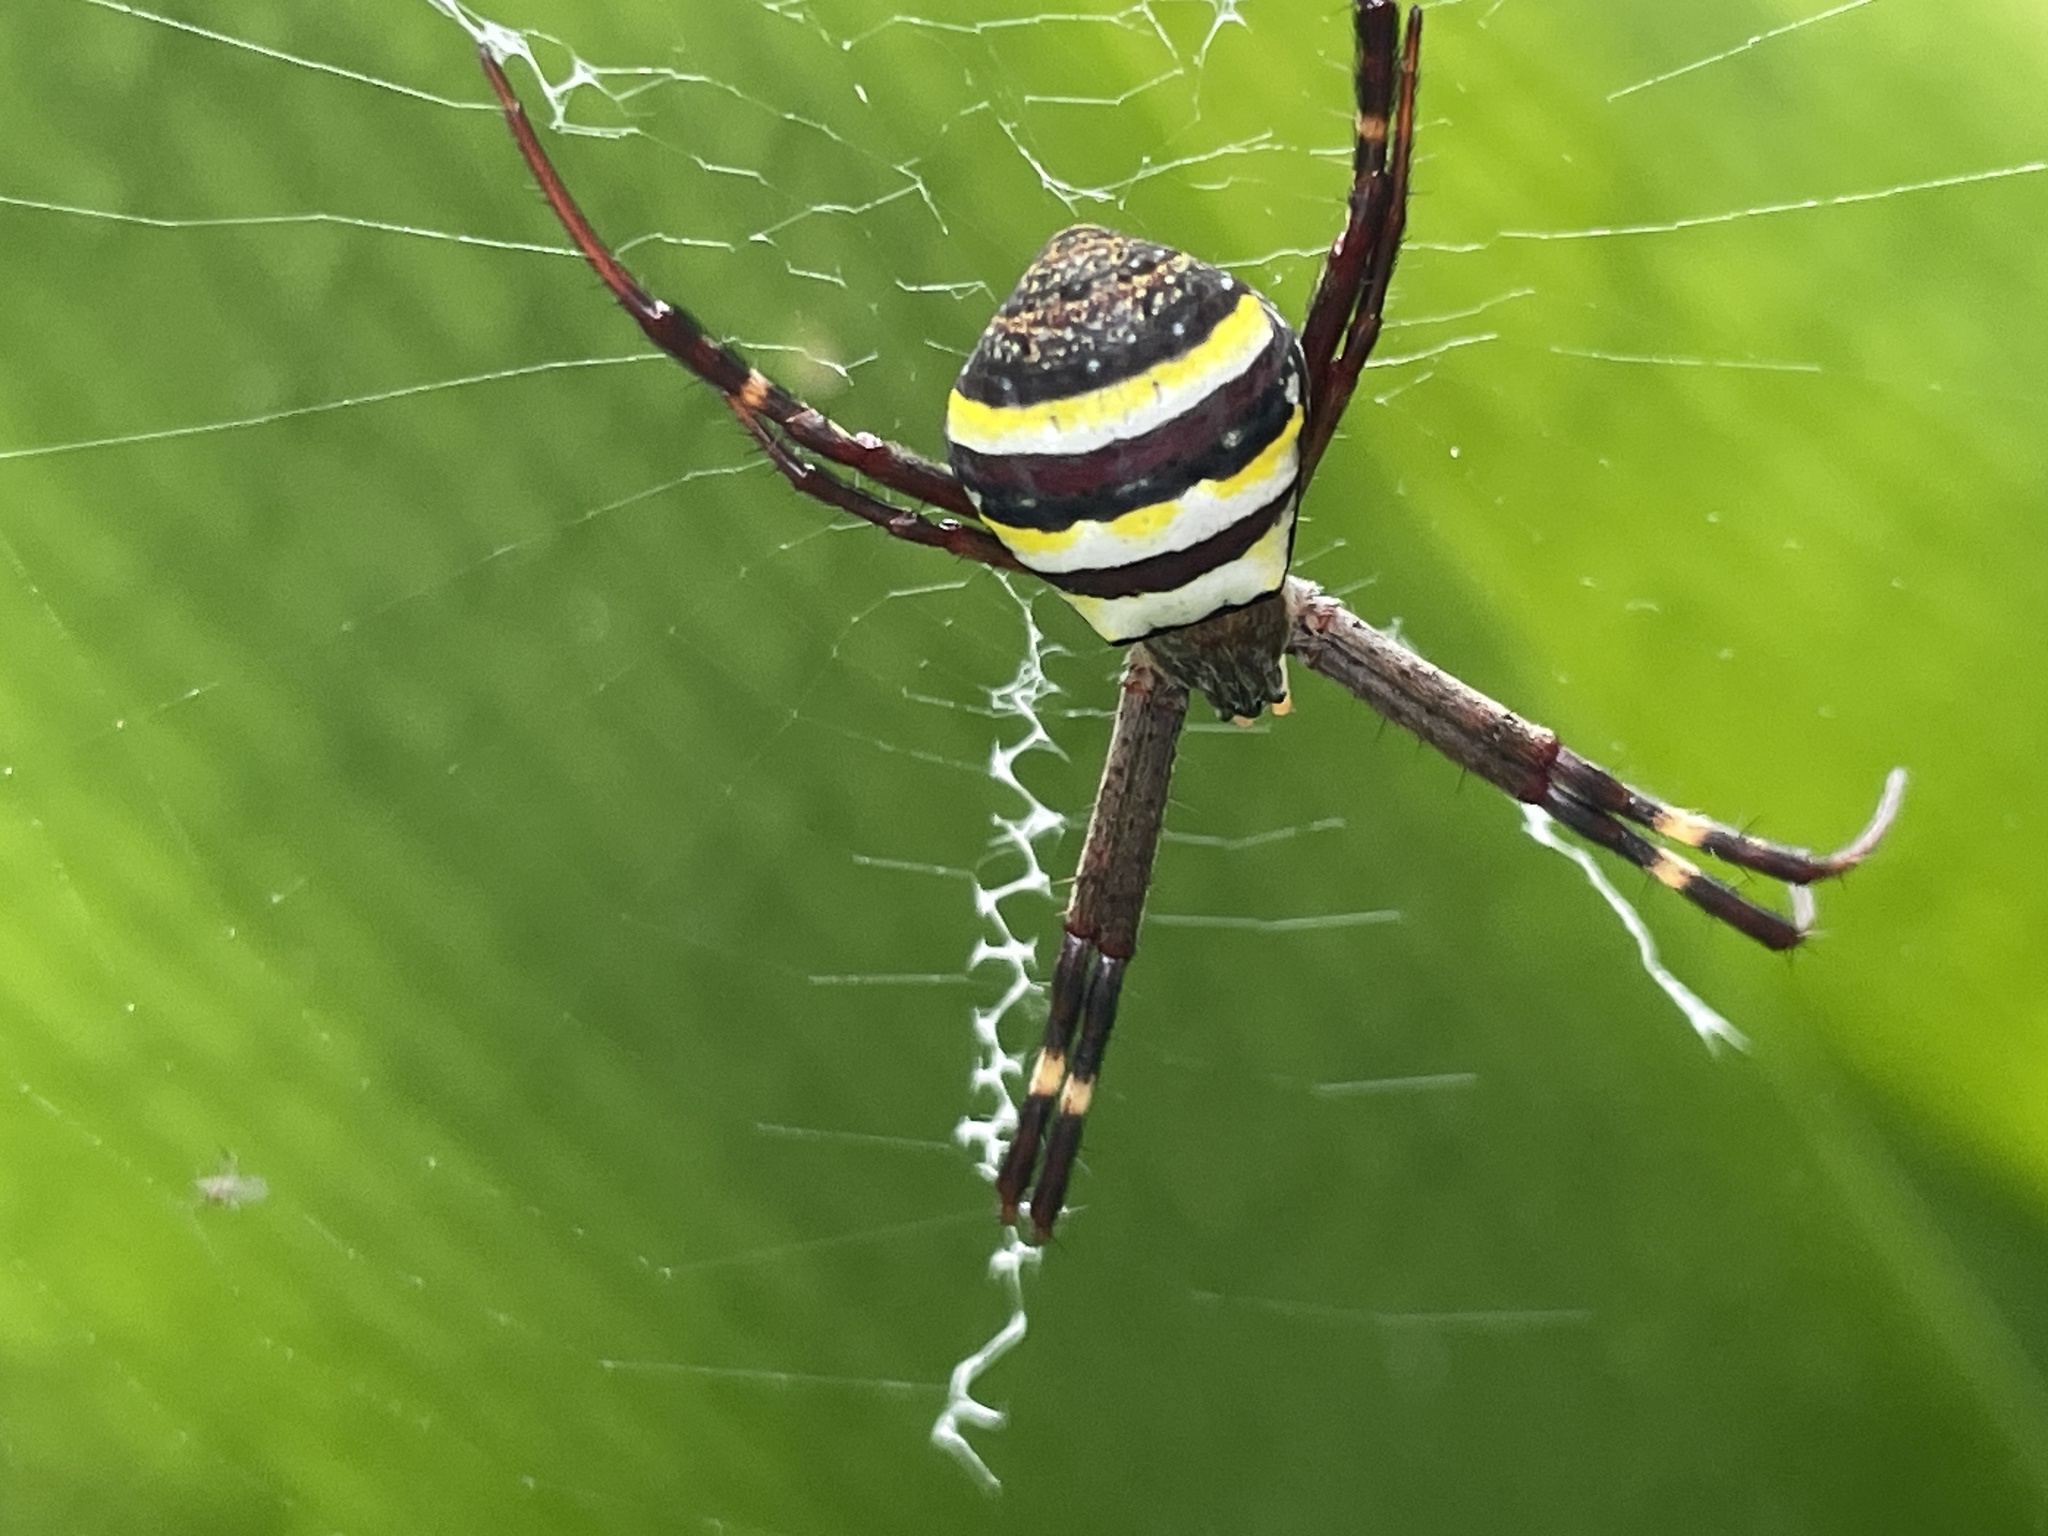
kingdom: Animalia
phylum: Arthropoda
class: Arachnida
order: Araneae
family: Araneidae
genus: Argiope
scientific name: Argiope keyserlingi
